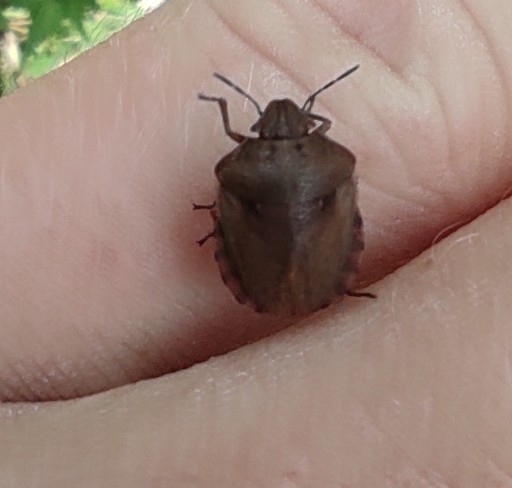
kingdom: Animalia
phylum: Arthropoda
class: Insecta
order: Hemiptera
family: Scutelleridae
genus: Eurygaster
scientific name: Eurygaster testudinaria
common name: Tortoise bug
